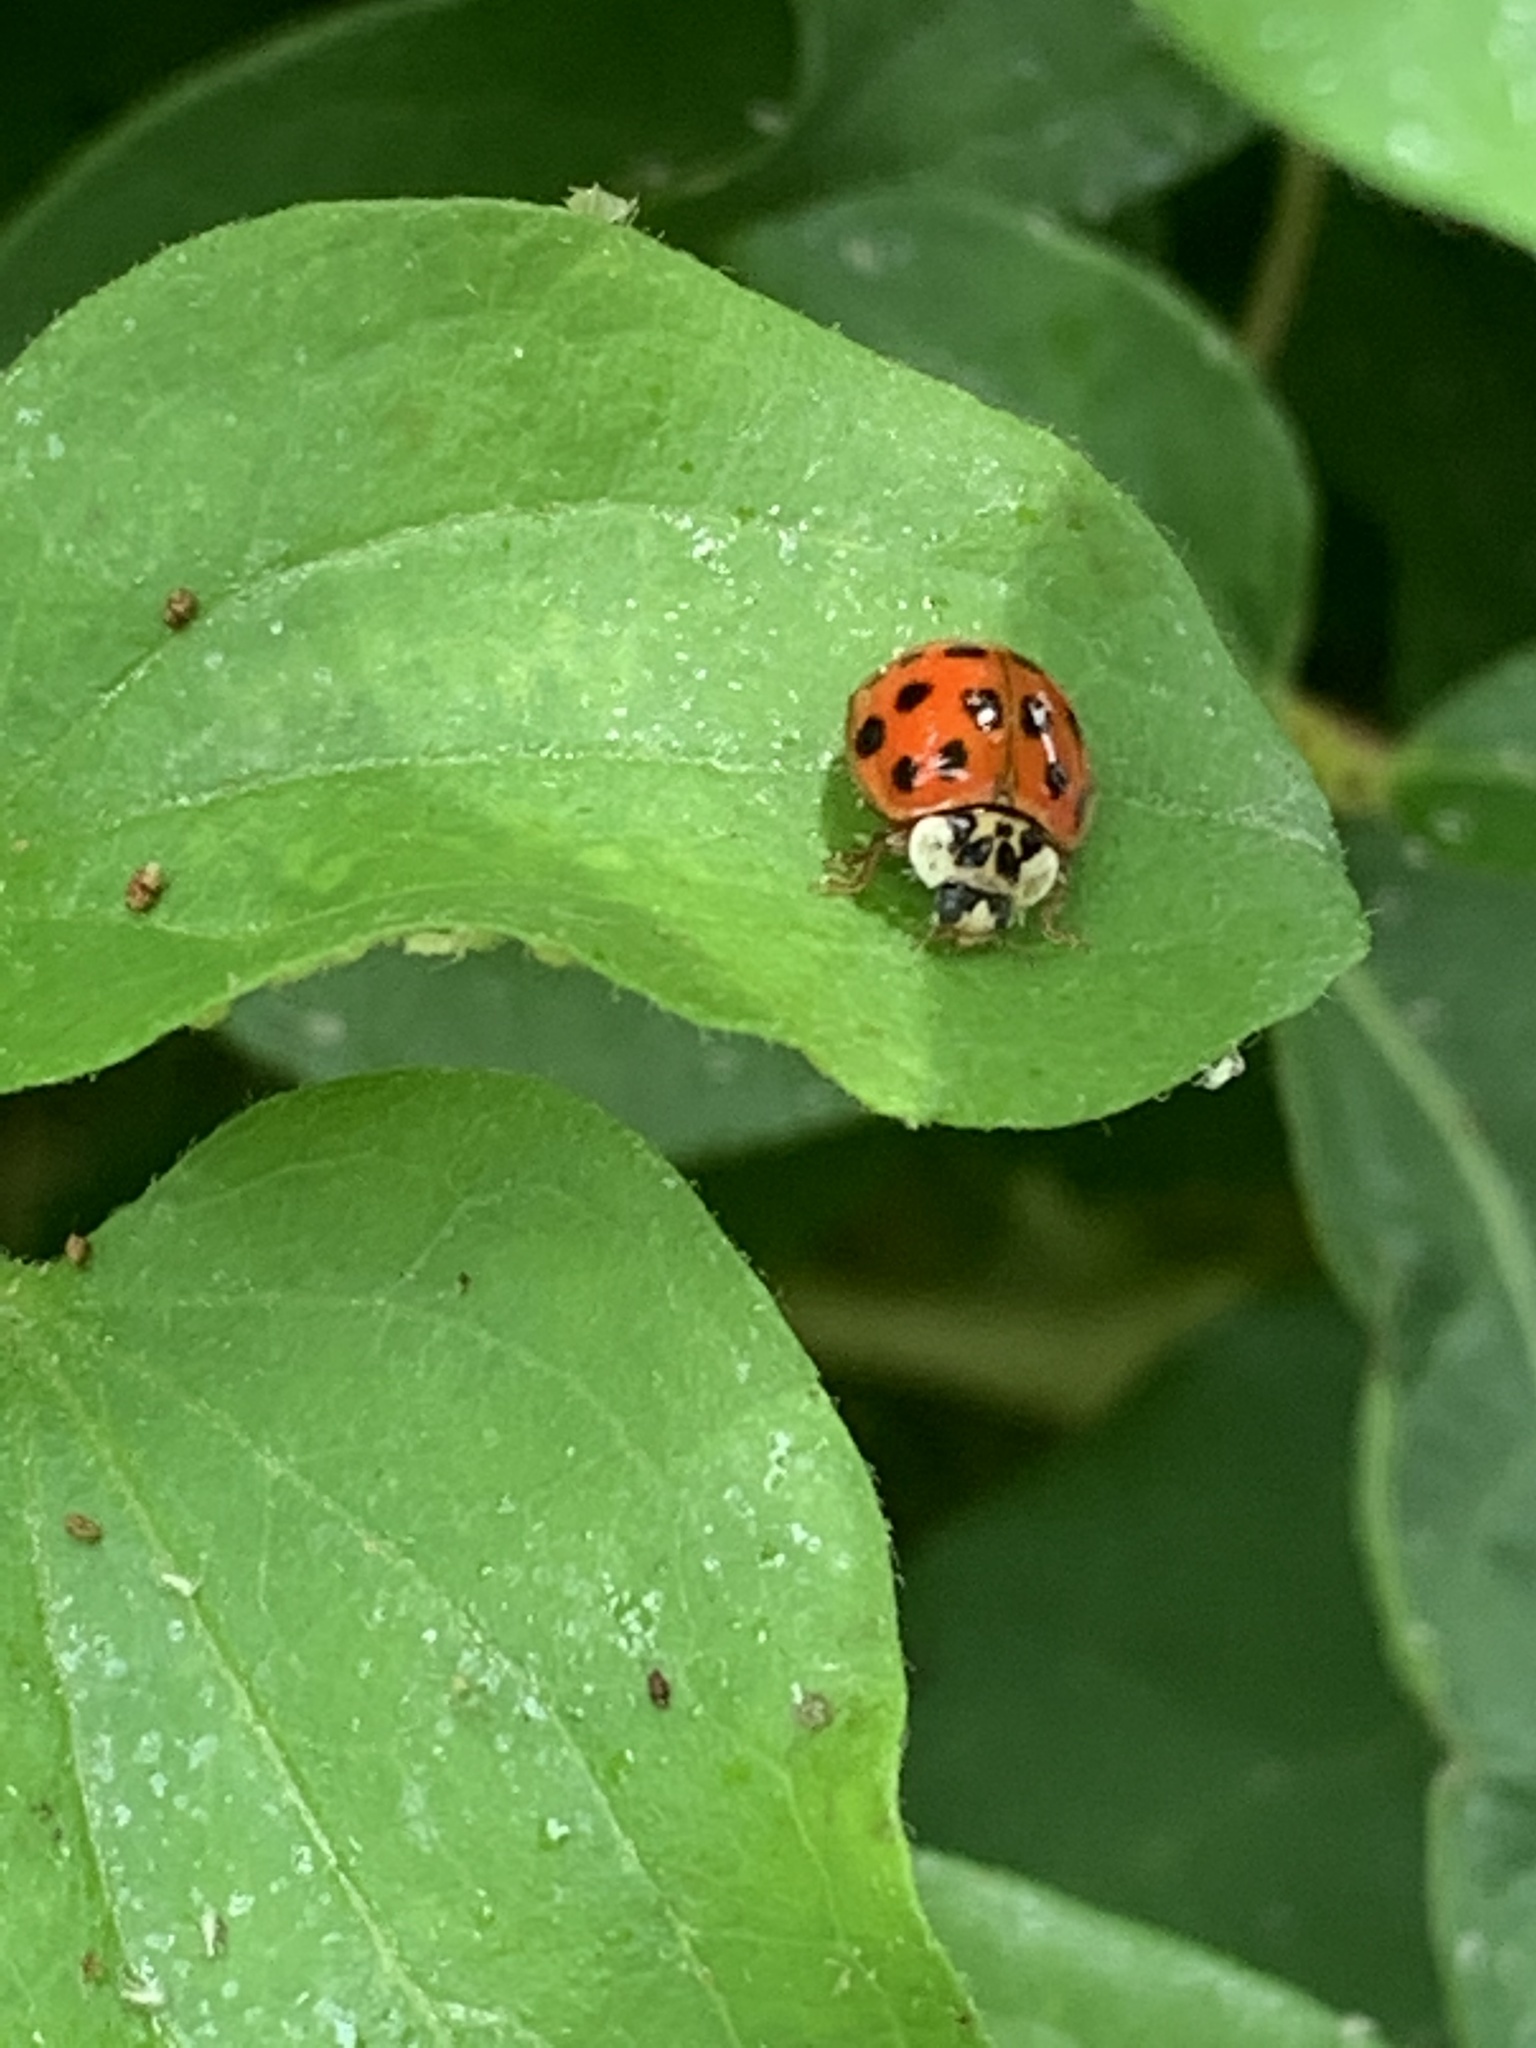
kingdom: Animalia
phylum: Arthropoda
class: Insecta
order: Coleoptera
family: Coccinellidae
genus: Harmonia
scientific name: Harmonia axyridis
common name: Harlequin ladybird
